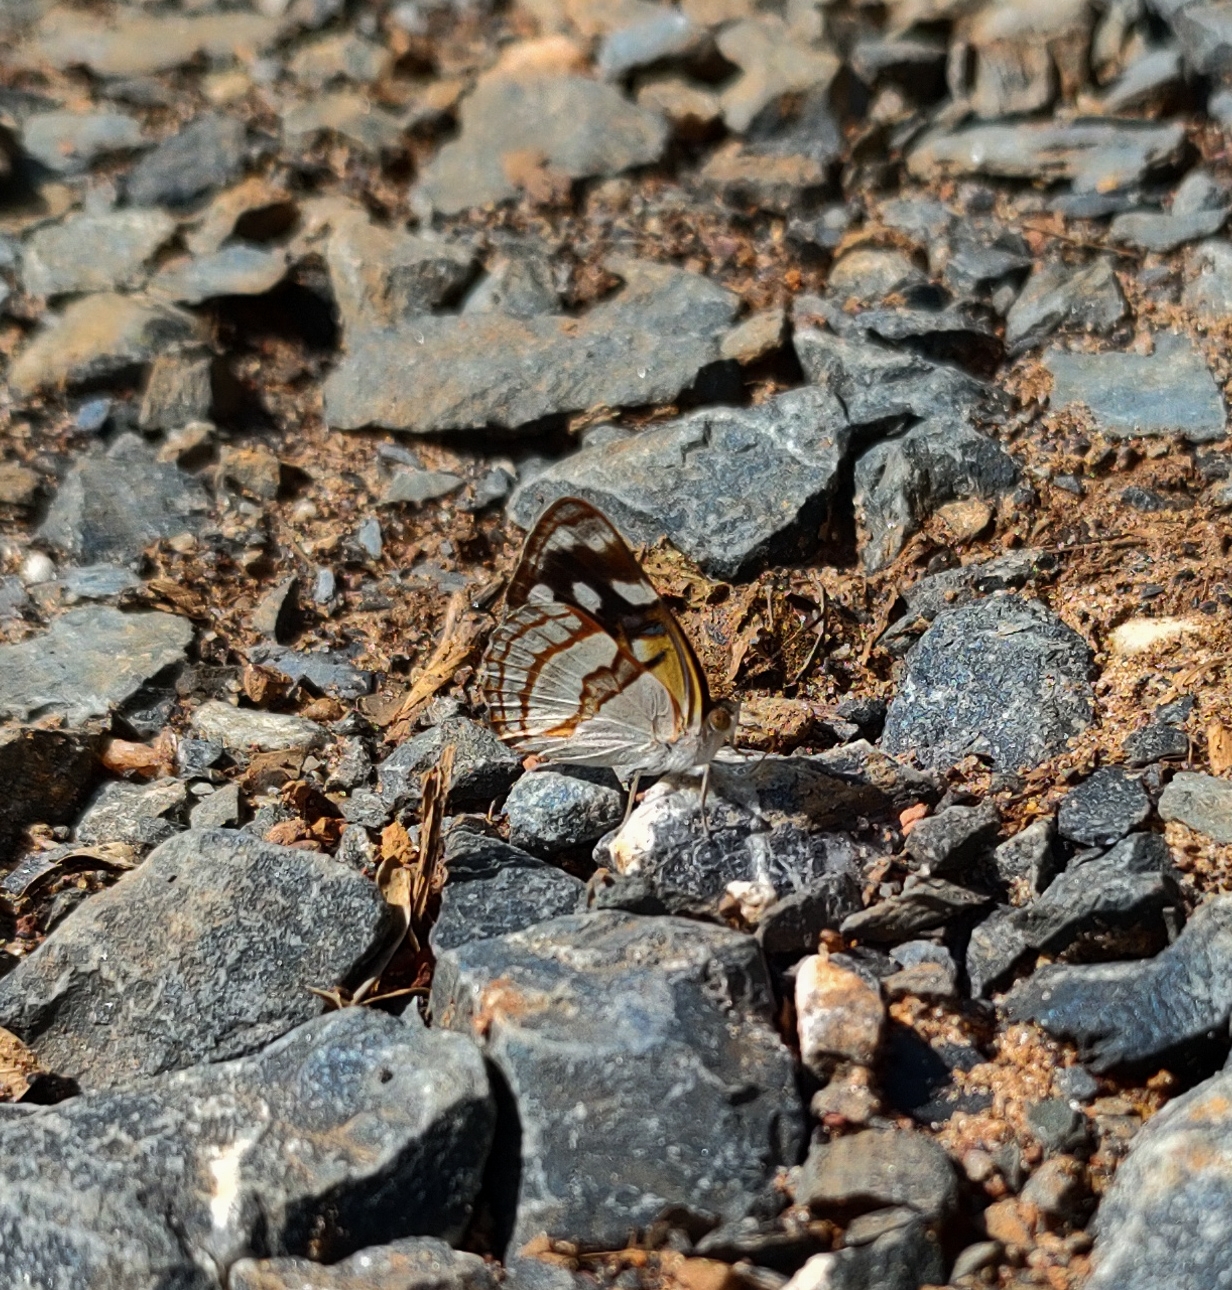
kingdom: Animalia
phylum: Arthropoda
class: Insecta
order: Lepidoptera
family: Nymphalidae
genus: Dynamine
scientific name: Dynamine tithia
